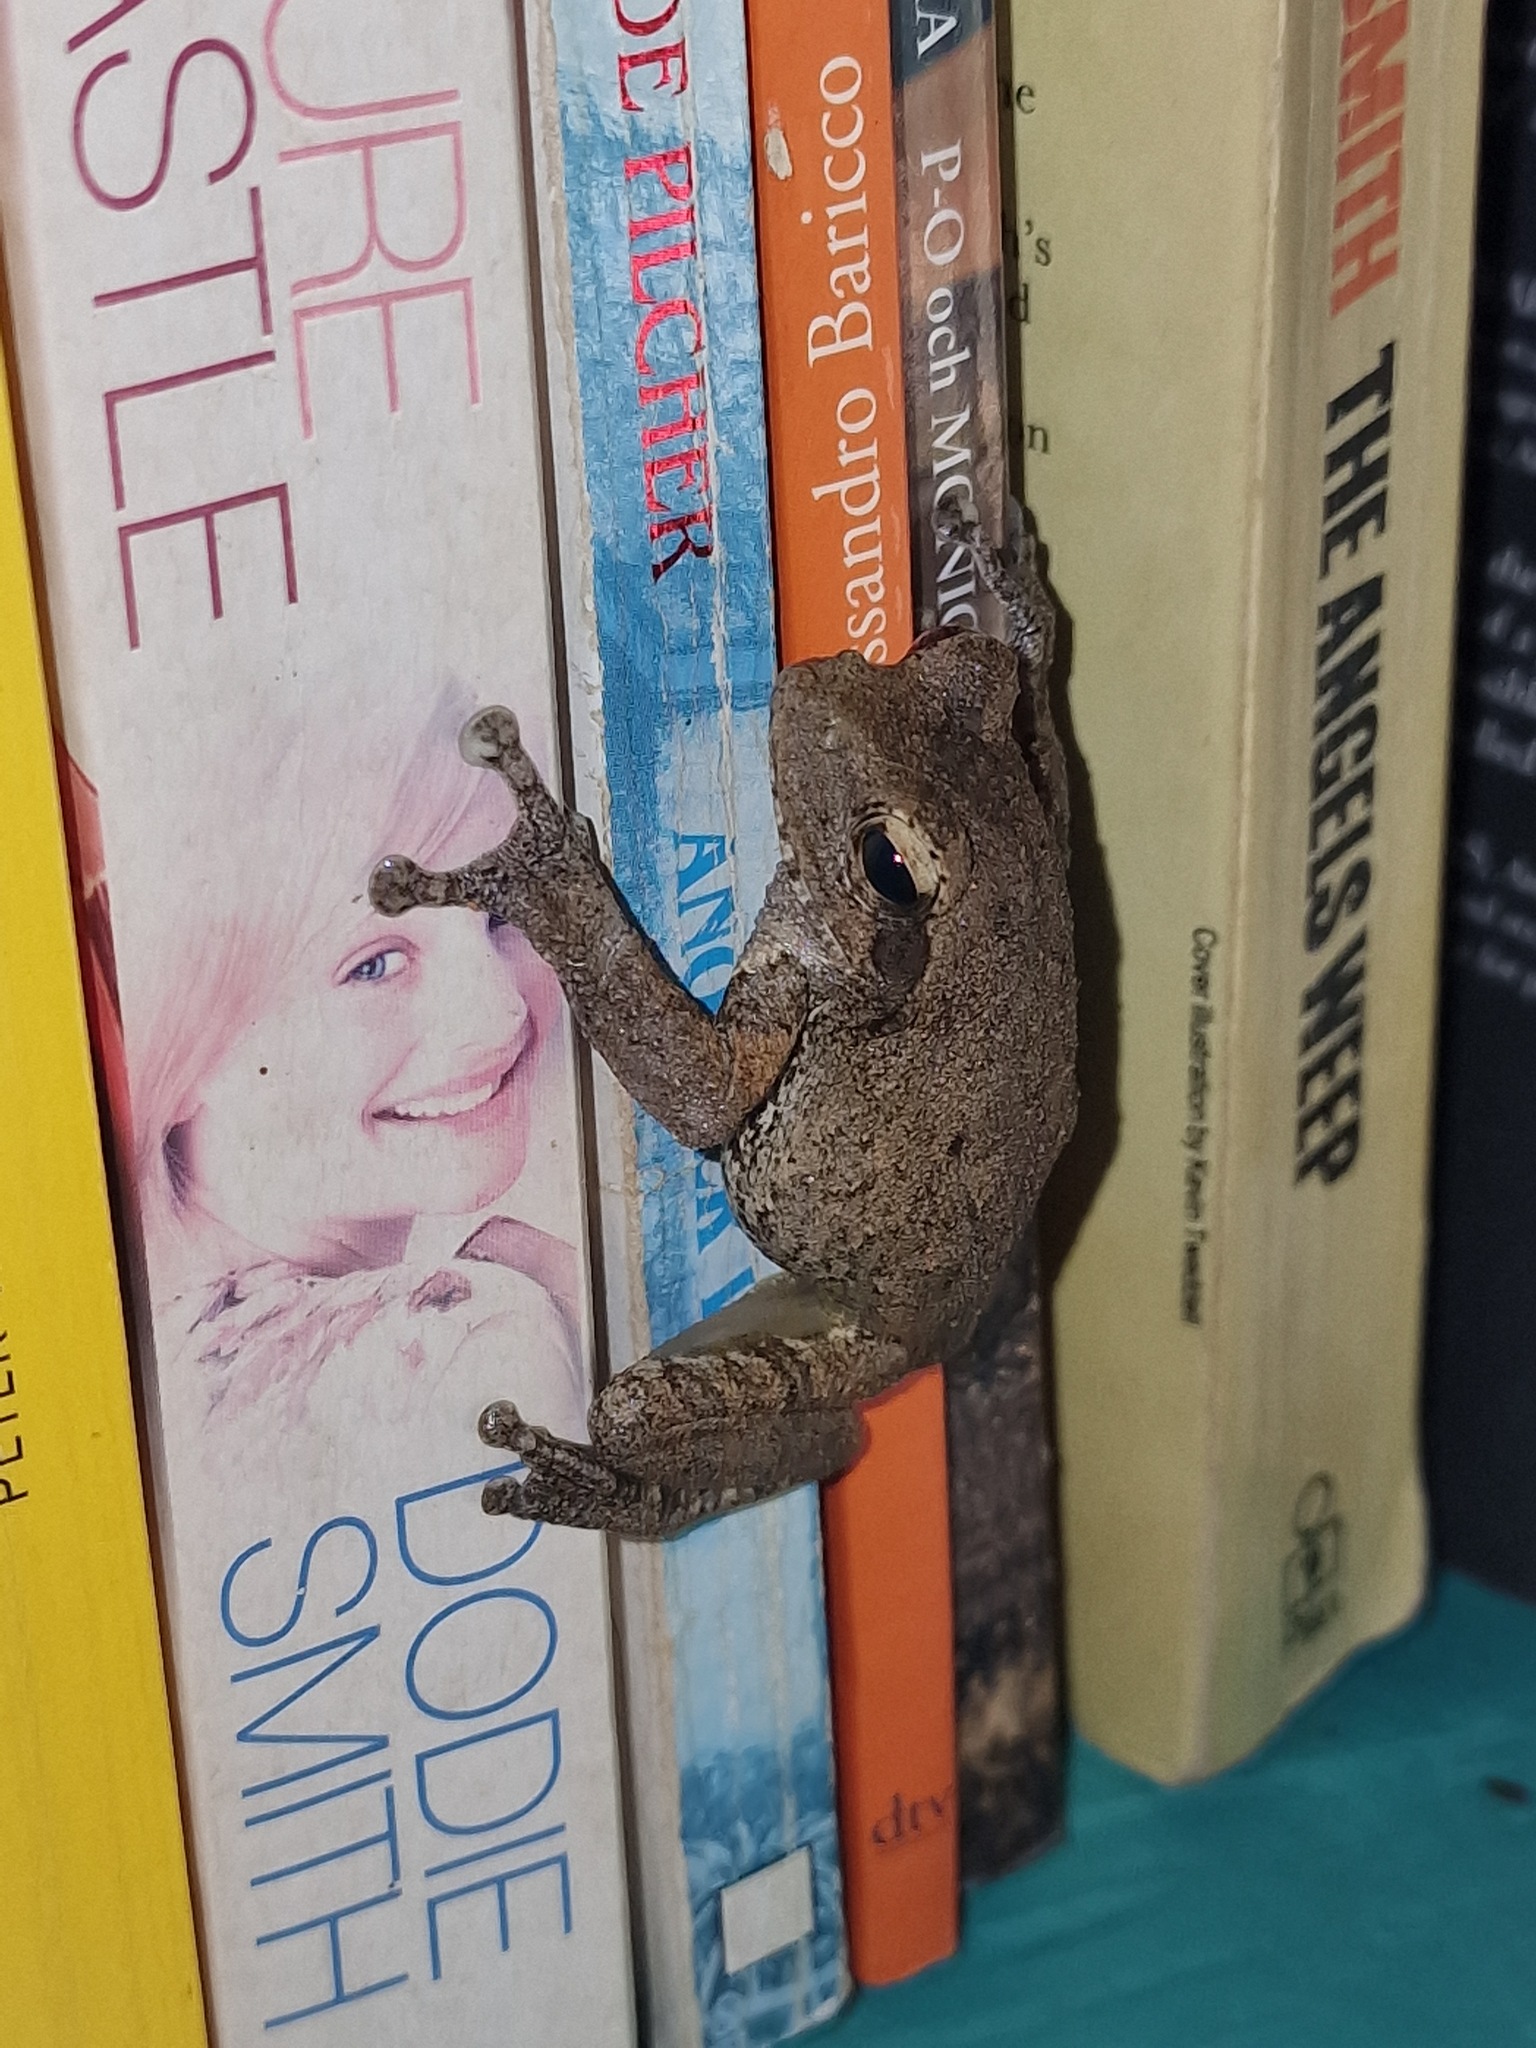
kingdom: Animalia
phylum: Chordata
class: Amphibia
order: Anura
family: Rhacophoridae
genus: Chiromantis
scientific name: Chiromantis xerampelina
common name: African gray treefrog
